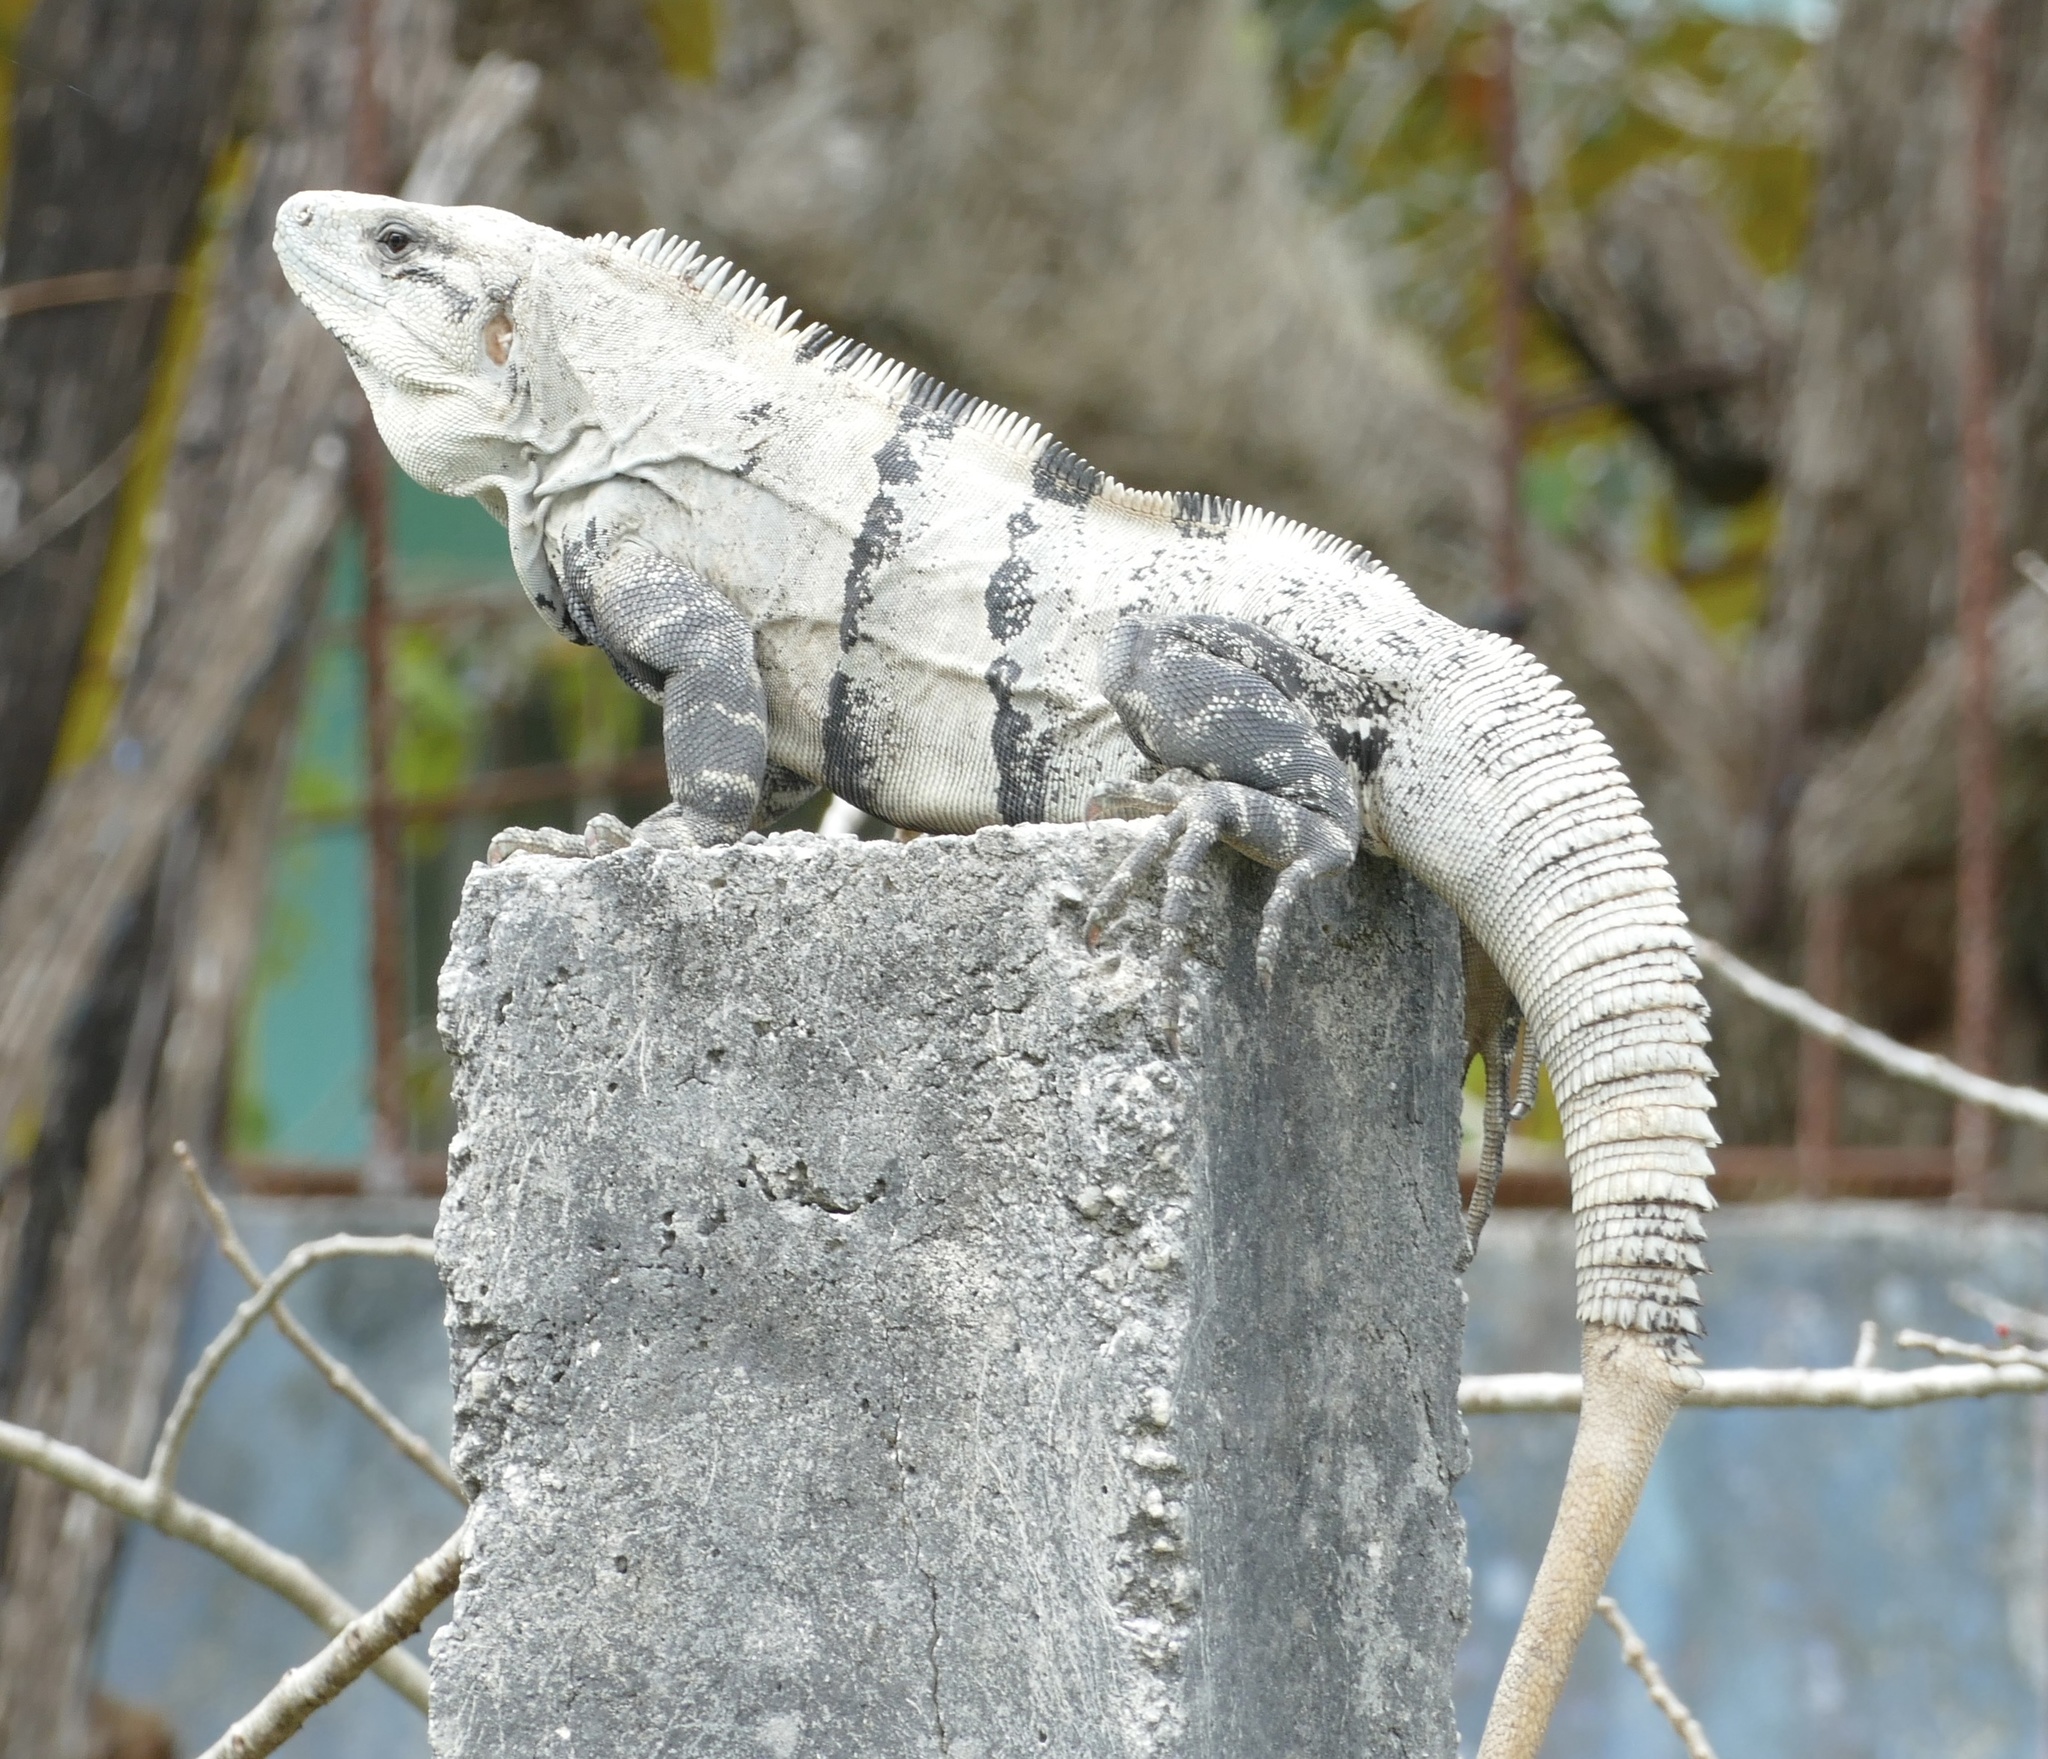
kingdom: Animalia
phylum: Chordata
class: Squamata
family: Iguanidae
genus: Ctenosaura
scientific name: Ctenosaura similis
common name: Black spiny-tailed iguana
